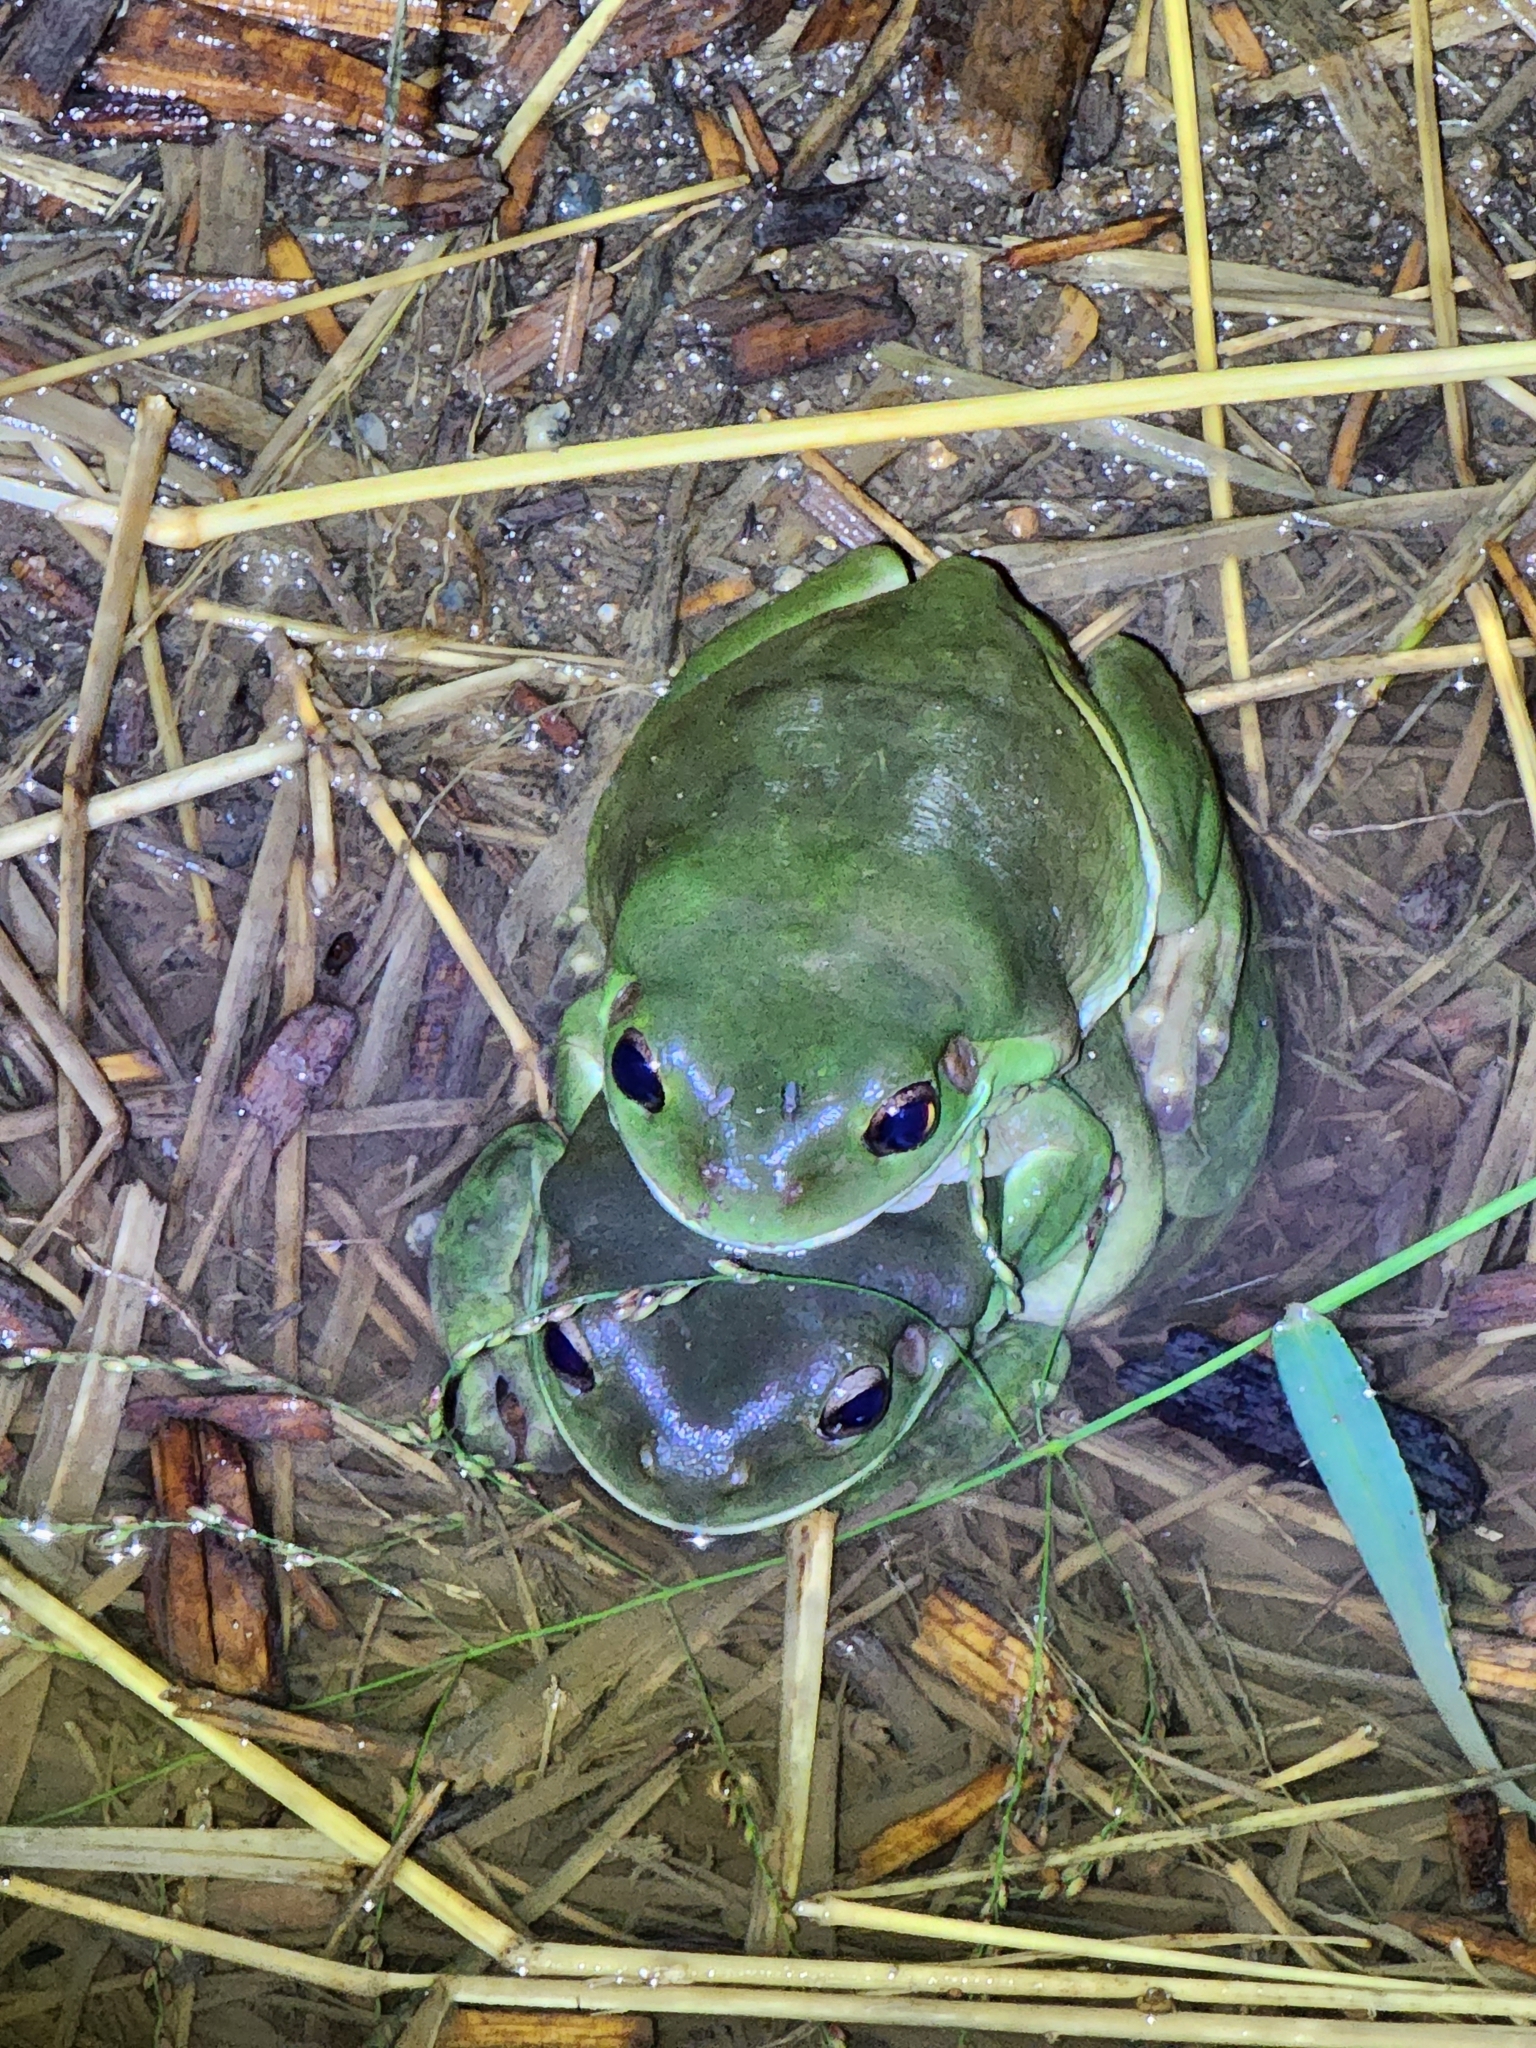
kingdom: Animalia
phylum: Chordata
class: Amphibia
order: Anura
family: Pelodryadidae
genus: Ranoidea
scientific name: Ranoidea caerulea
